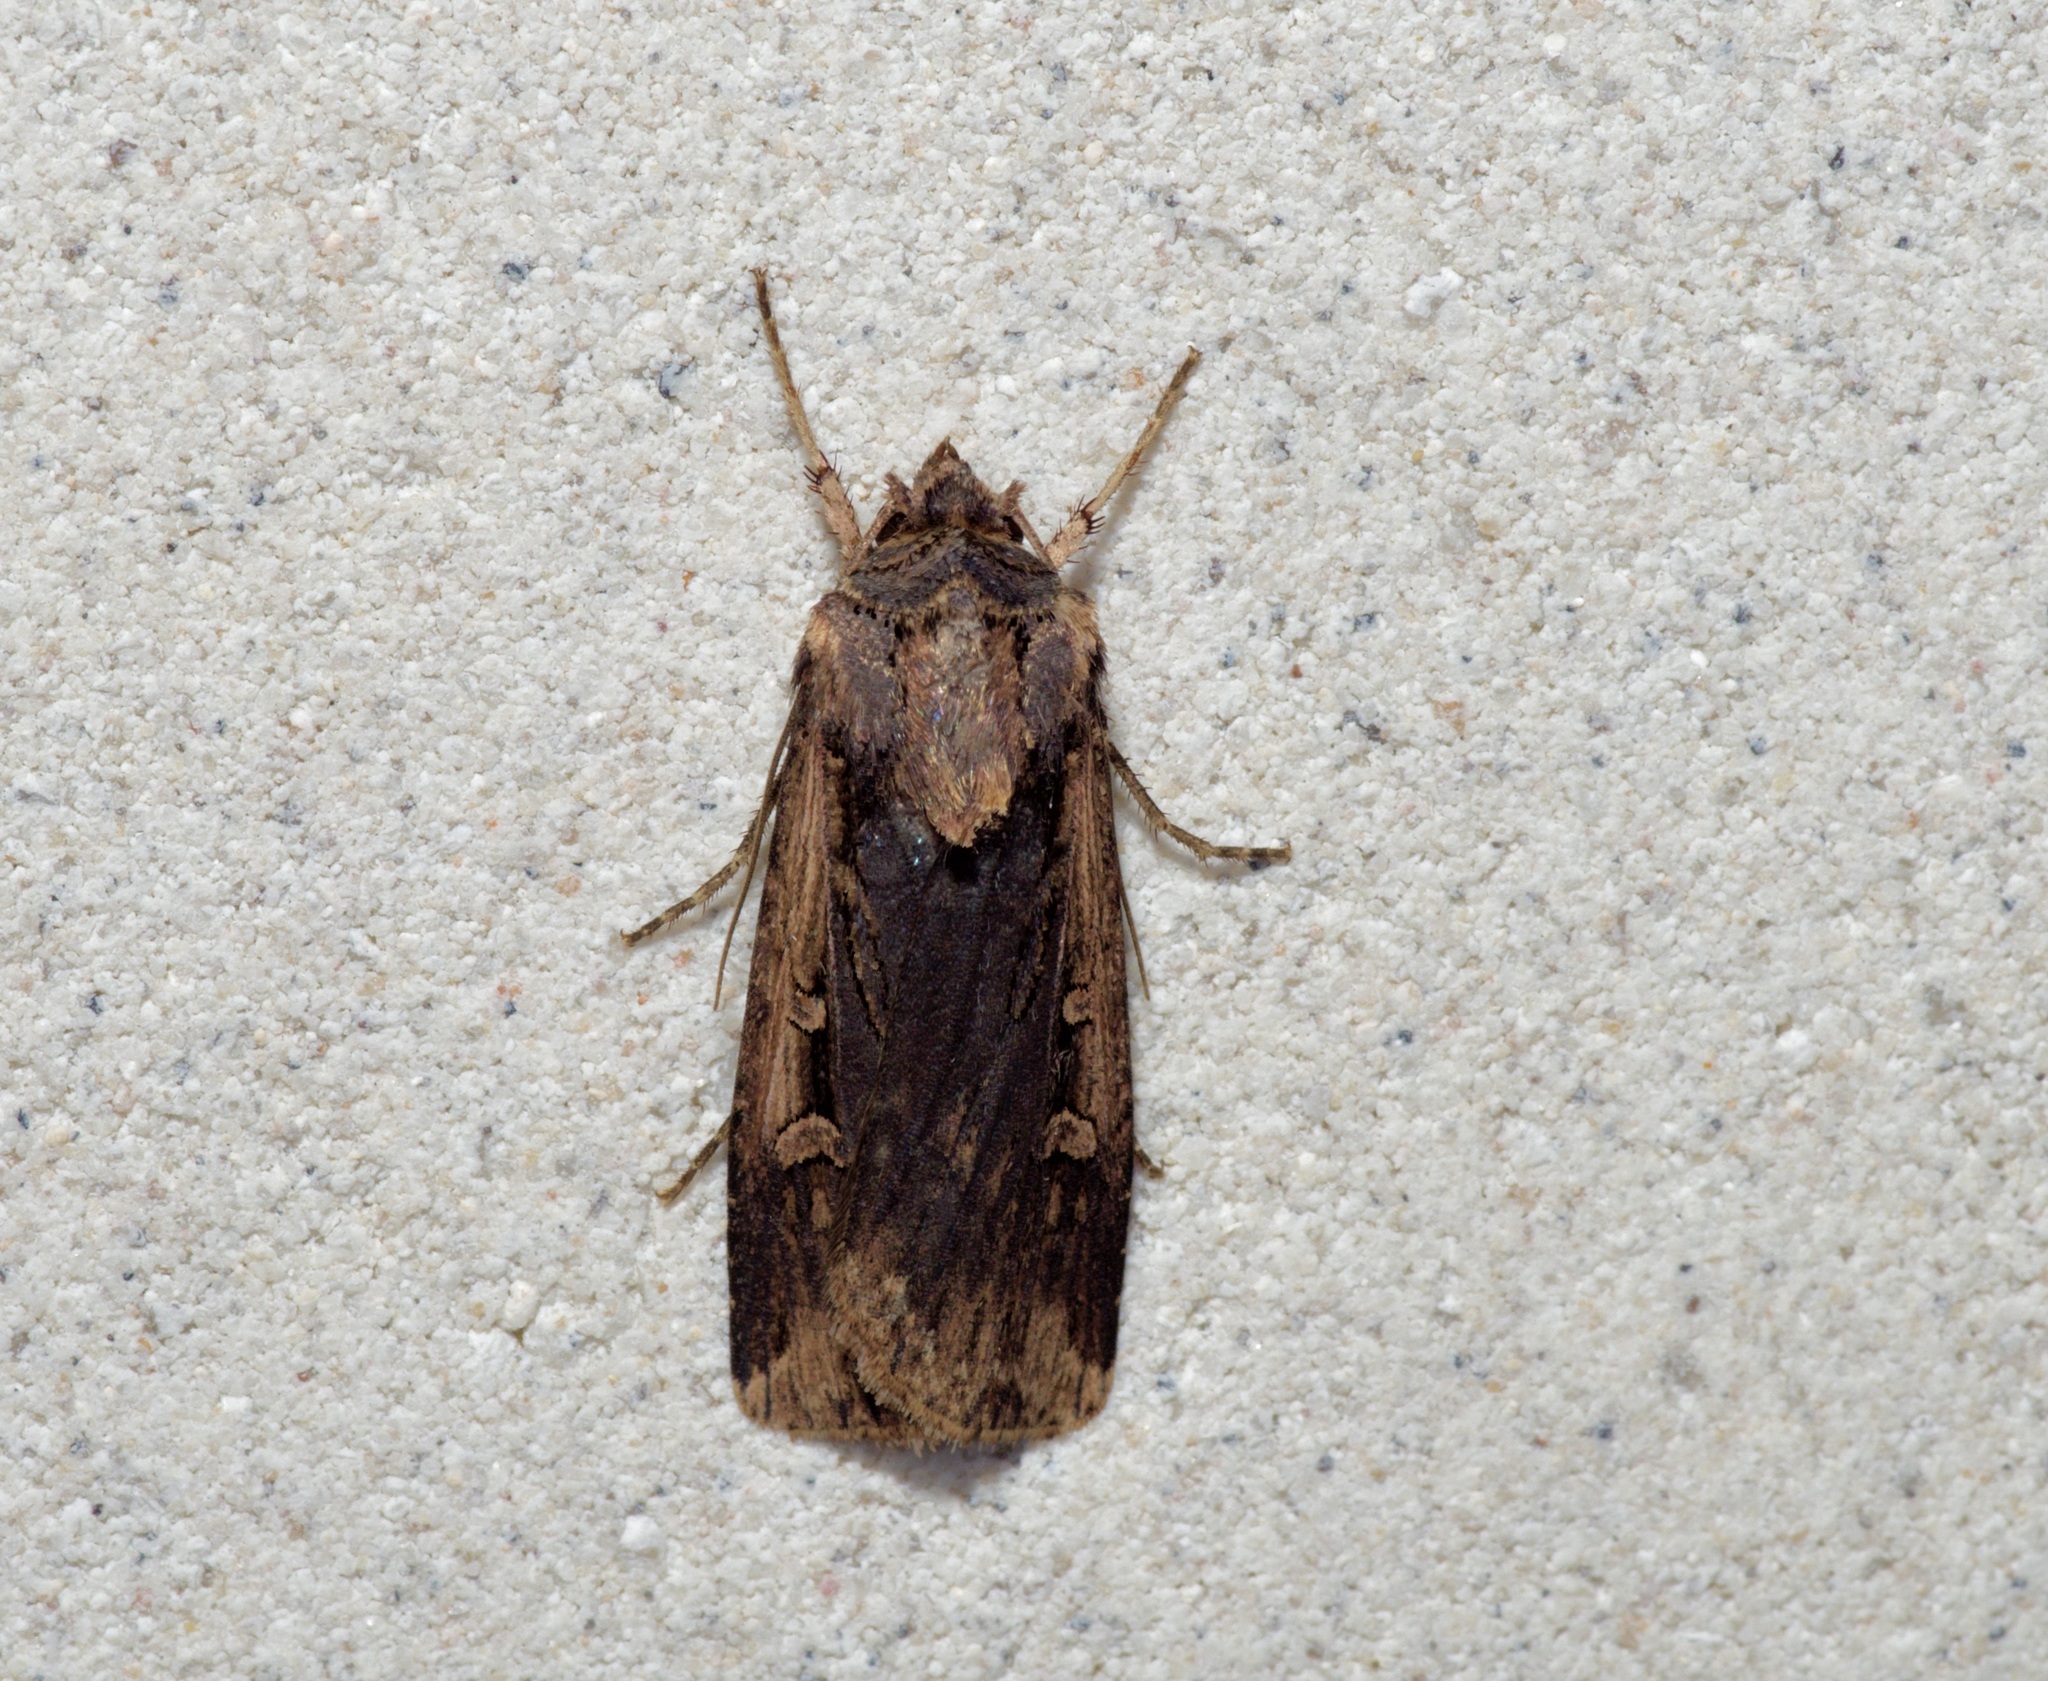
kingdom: Animalia
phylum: Arthropoda
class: Insecta
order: Lepidoptera
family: Noctuidae
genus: Feltia
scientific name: Feltia subterranea
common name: Granulate cutworm
